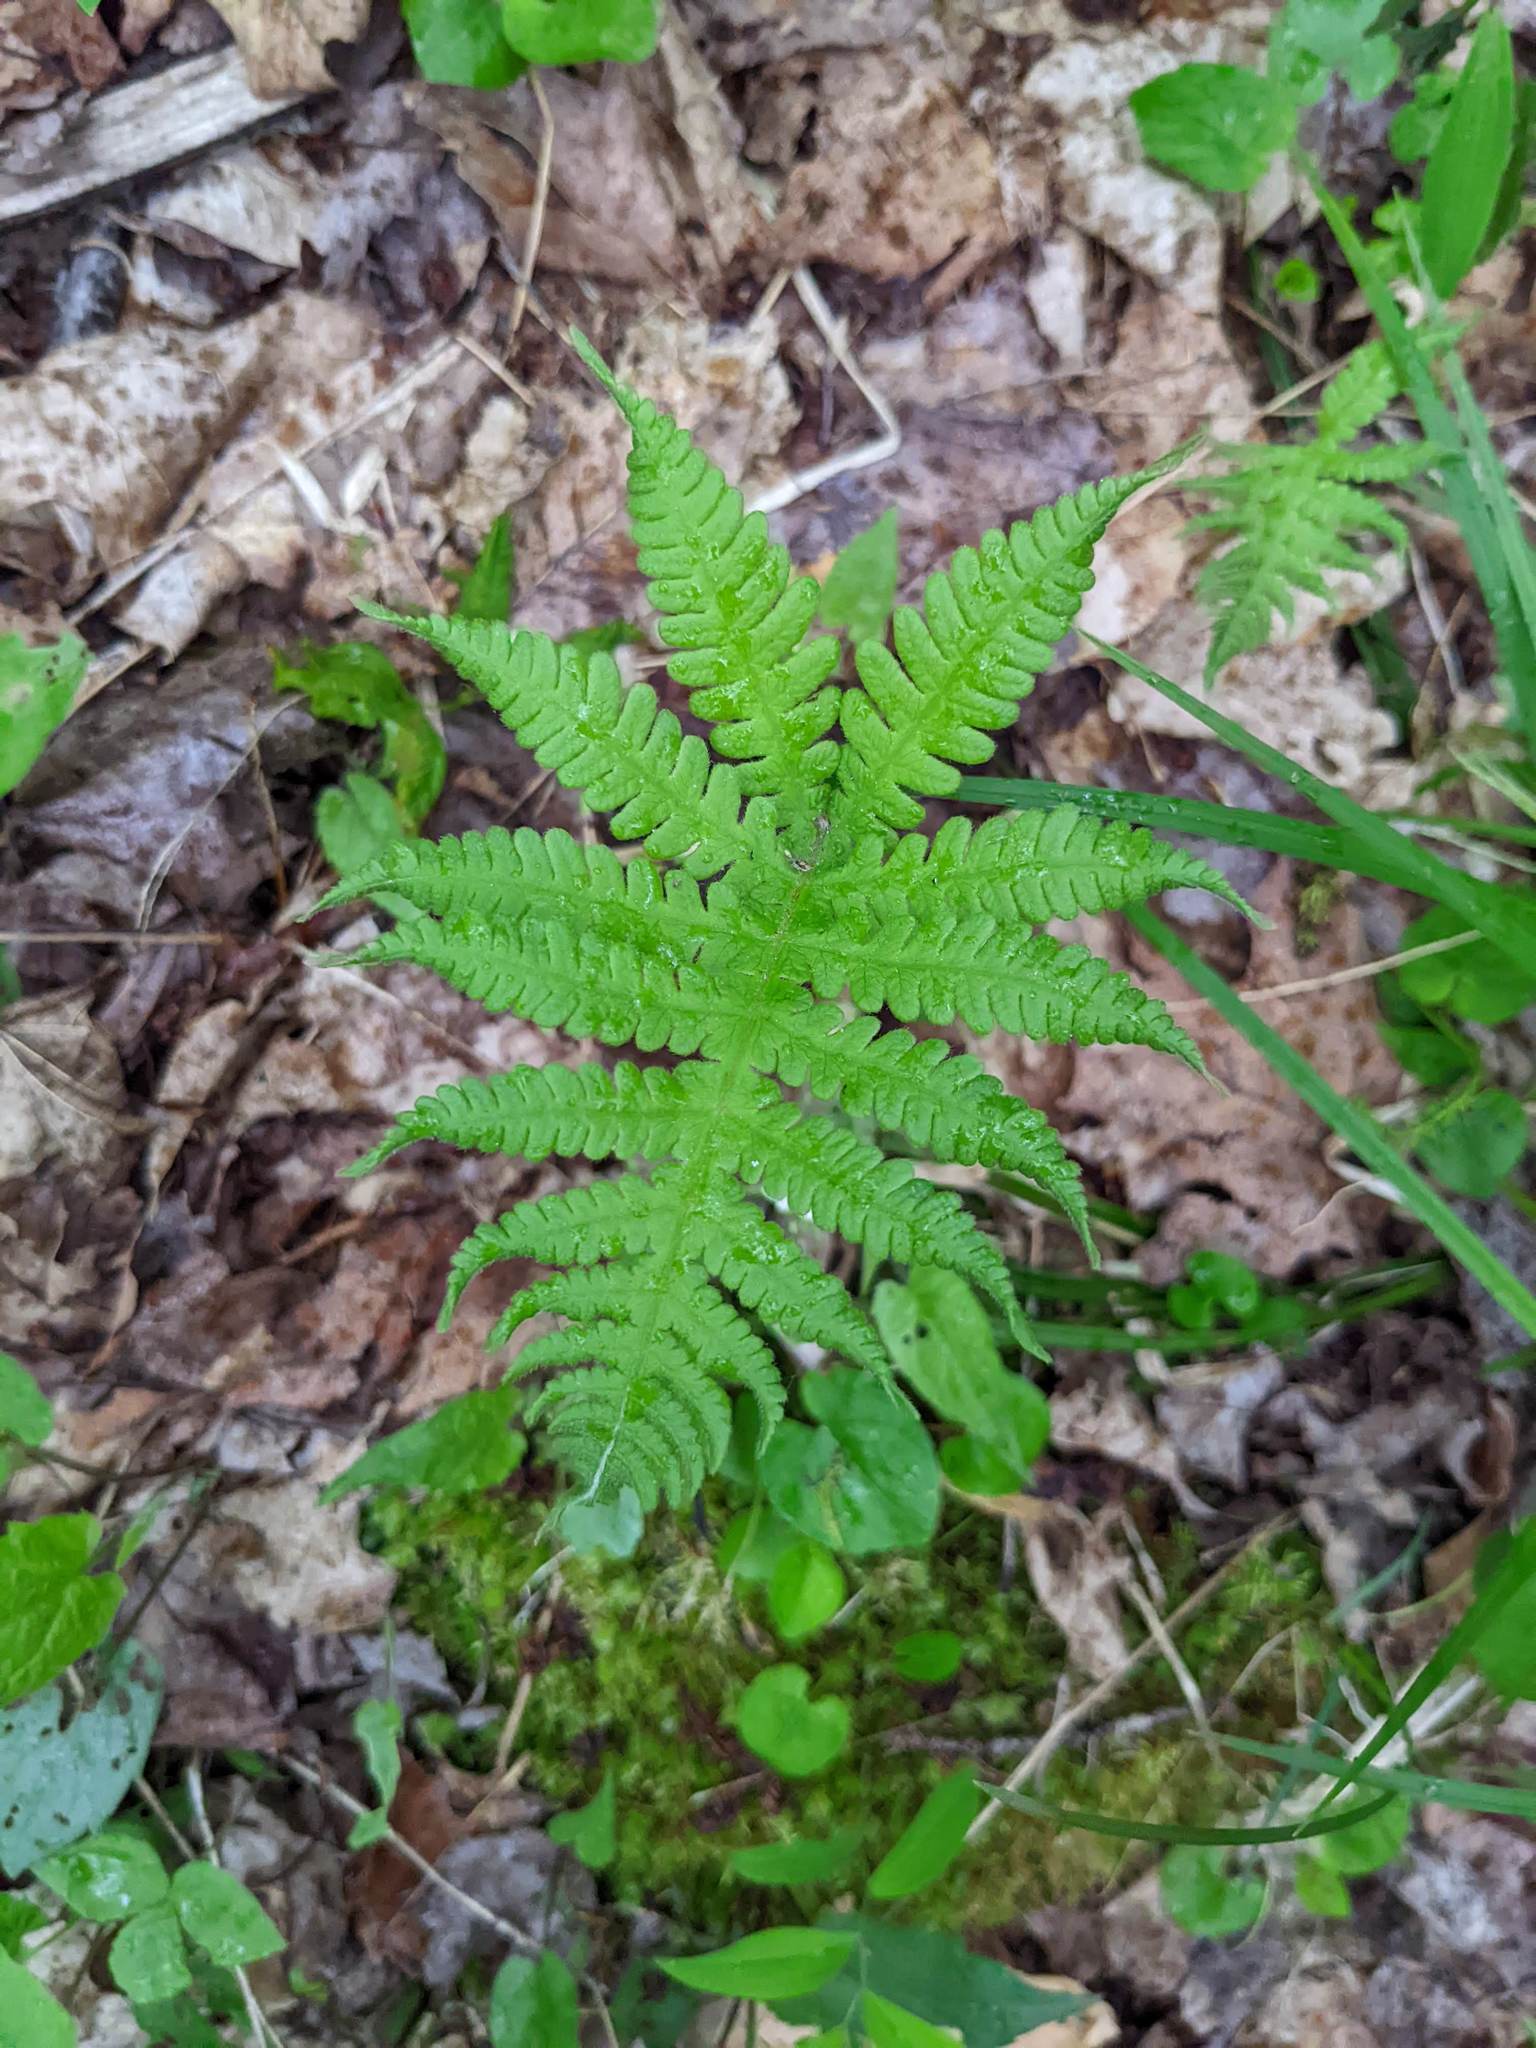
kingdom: Plantae
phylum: Tracheophyta
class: Polypodiopsida
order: Polypodiales
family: Thelypteridaceae
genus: Phegopteris
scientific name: Phegopteris connectilis
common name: Beech fern
